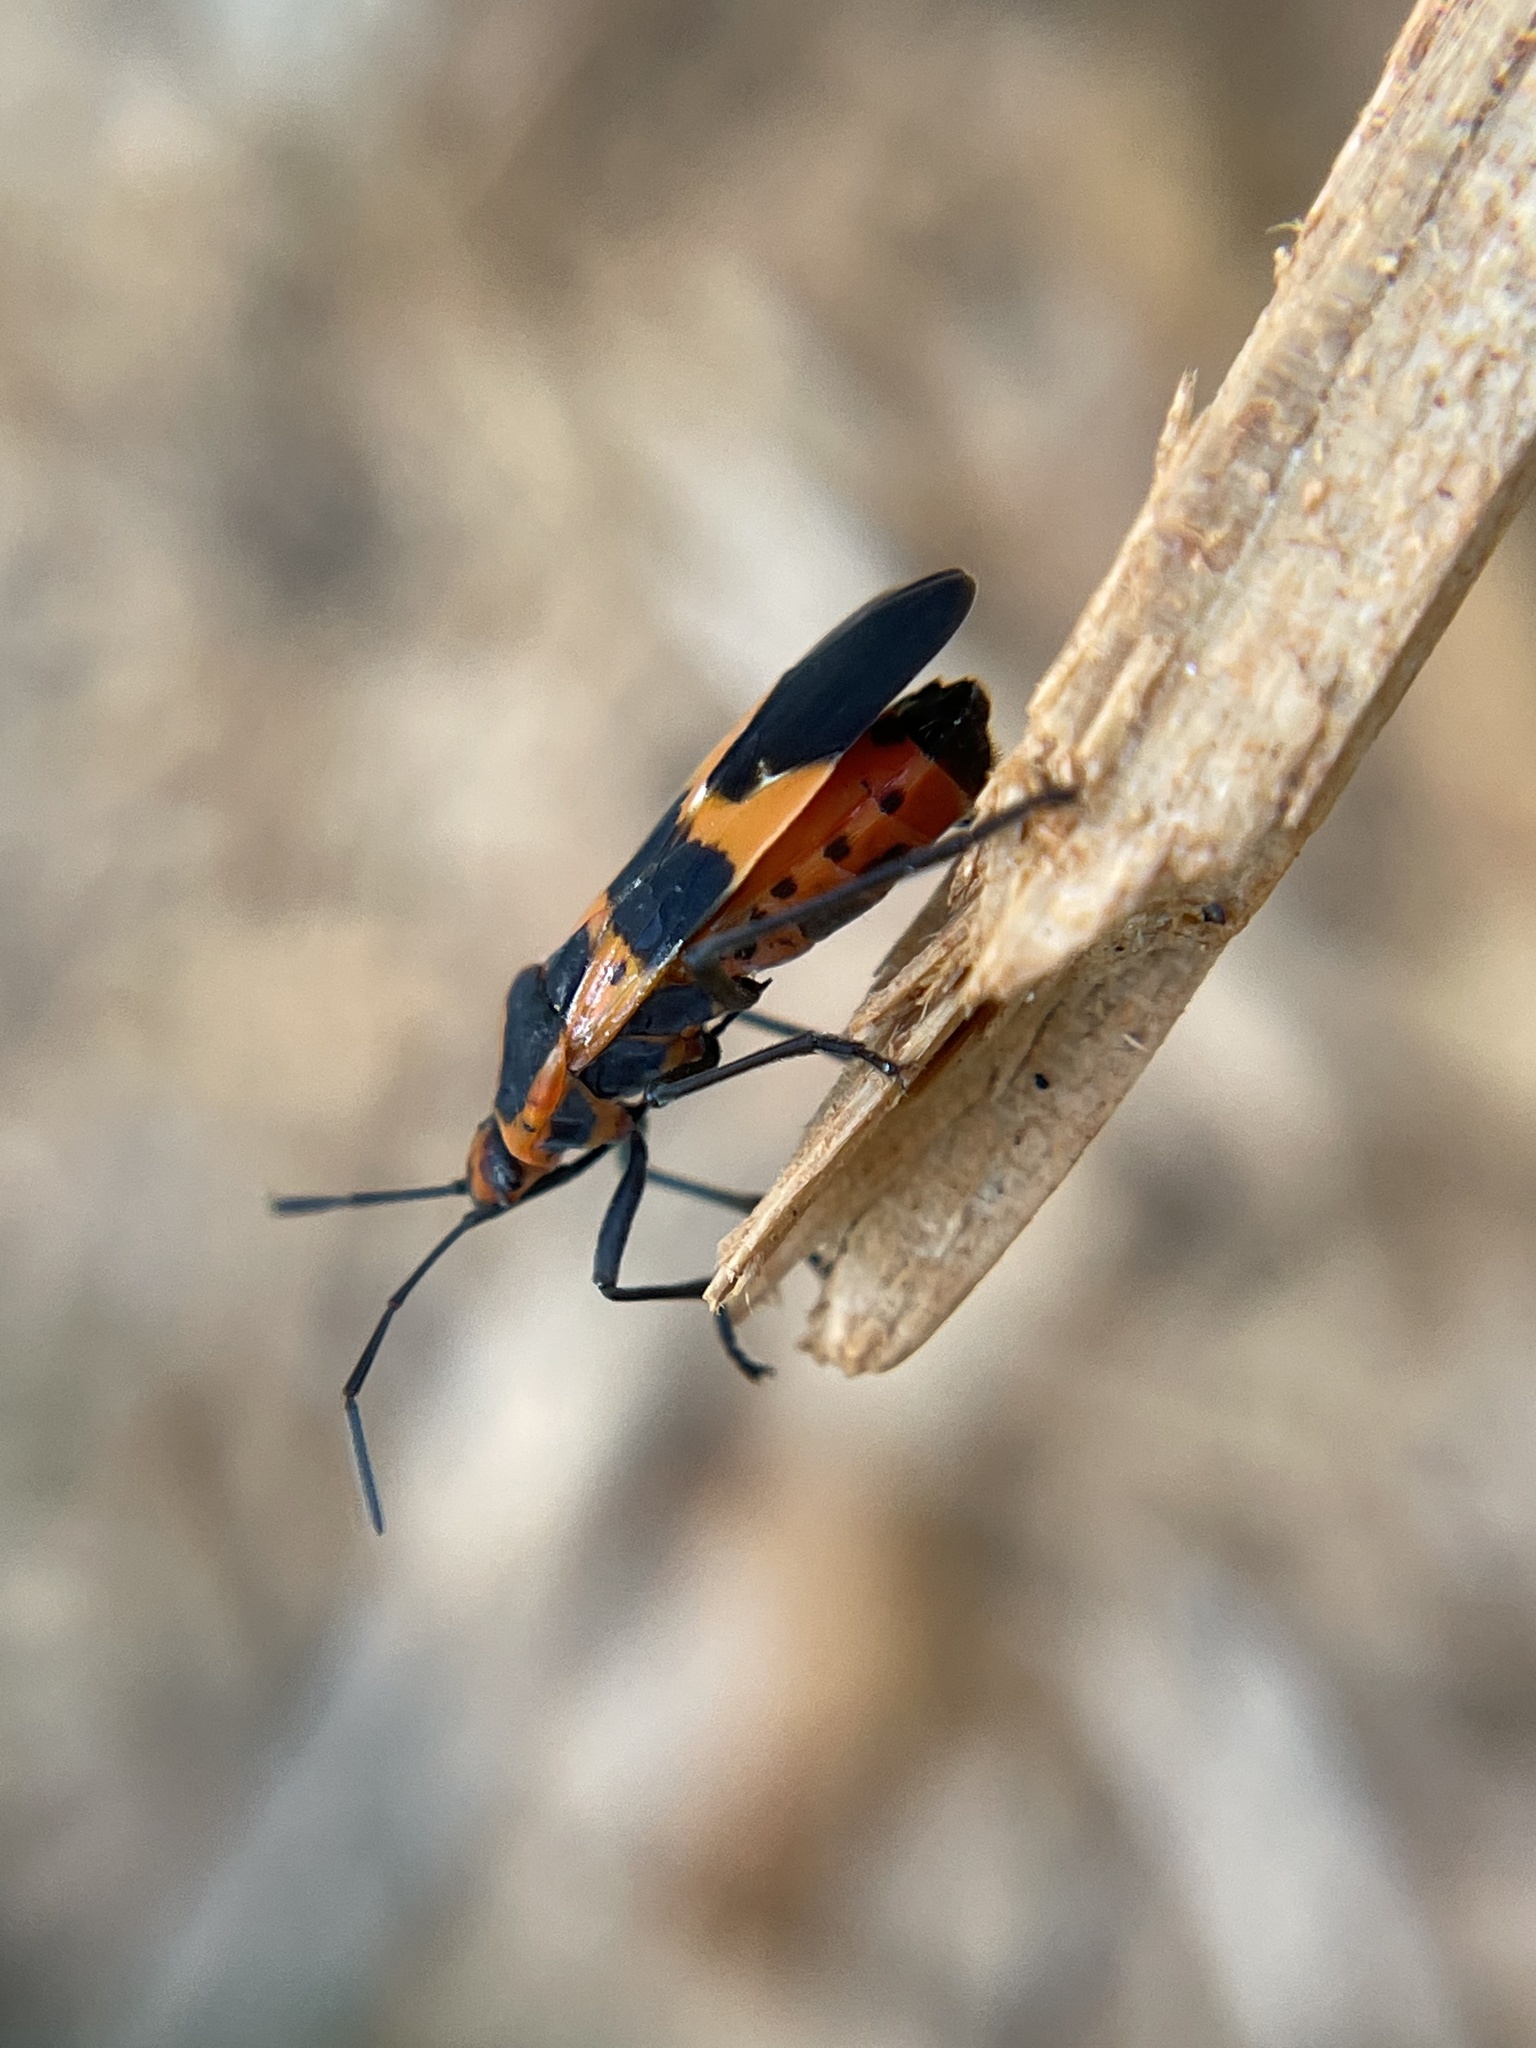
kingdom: Animalia
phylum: Arthropoda
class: Insecta
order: Hemiptera
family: Lygaeidae
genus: Oncopeltus
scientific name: Oncopeltus fasciatus
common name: Large milkweed bug
